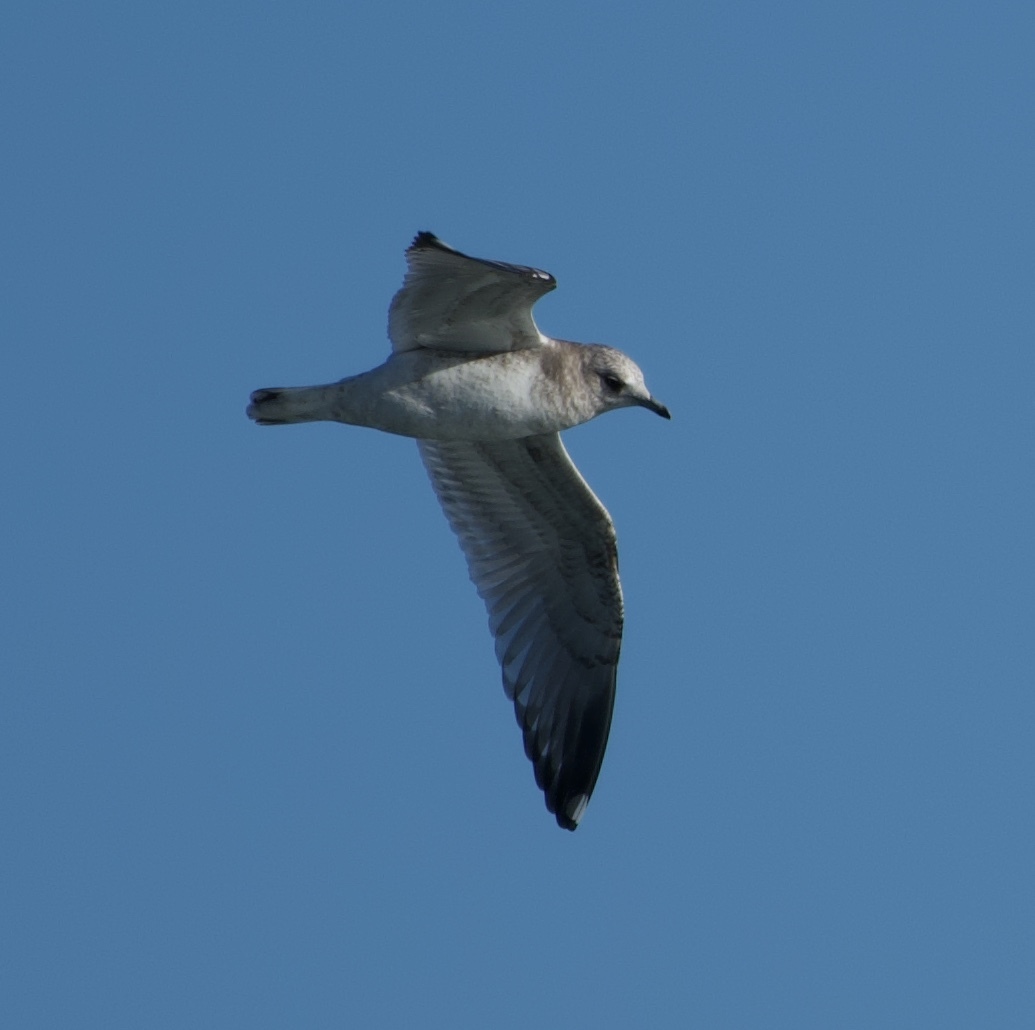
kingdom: Animalia
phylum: Chordata
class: Aves
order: Charadriiformes
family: Laridae
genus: Larus
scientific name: Larus brachyrhynchus
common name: Short-billed gull
